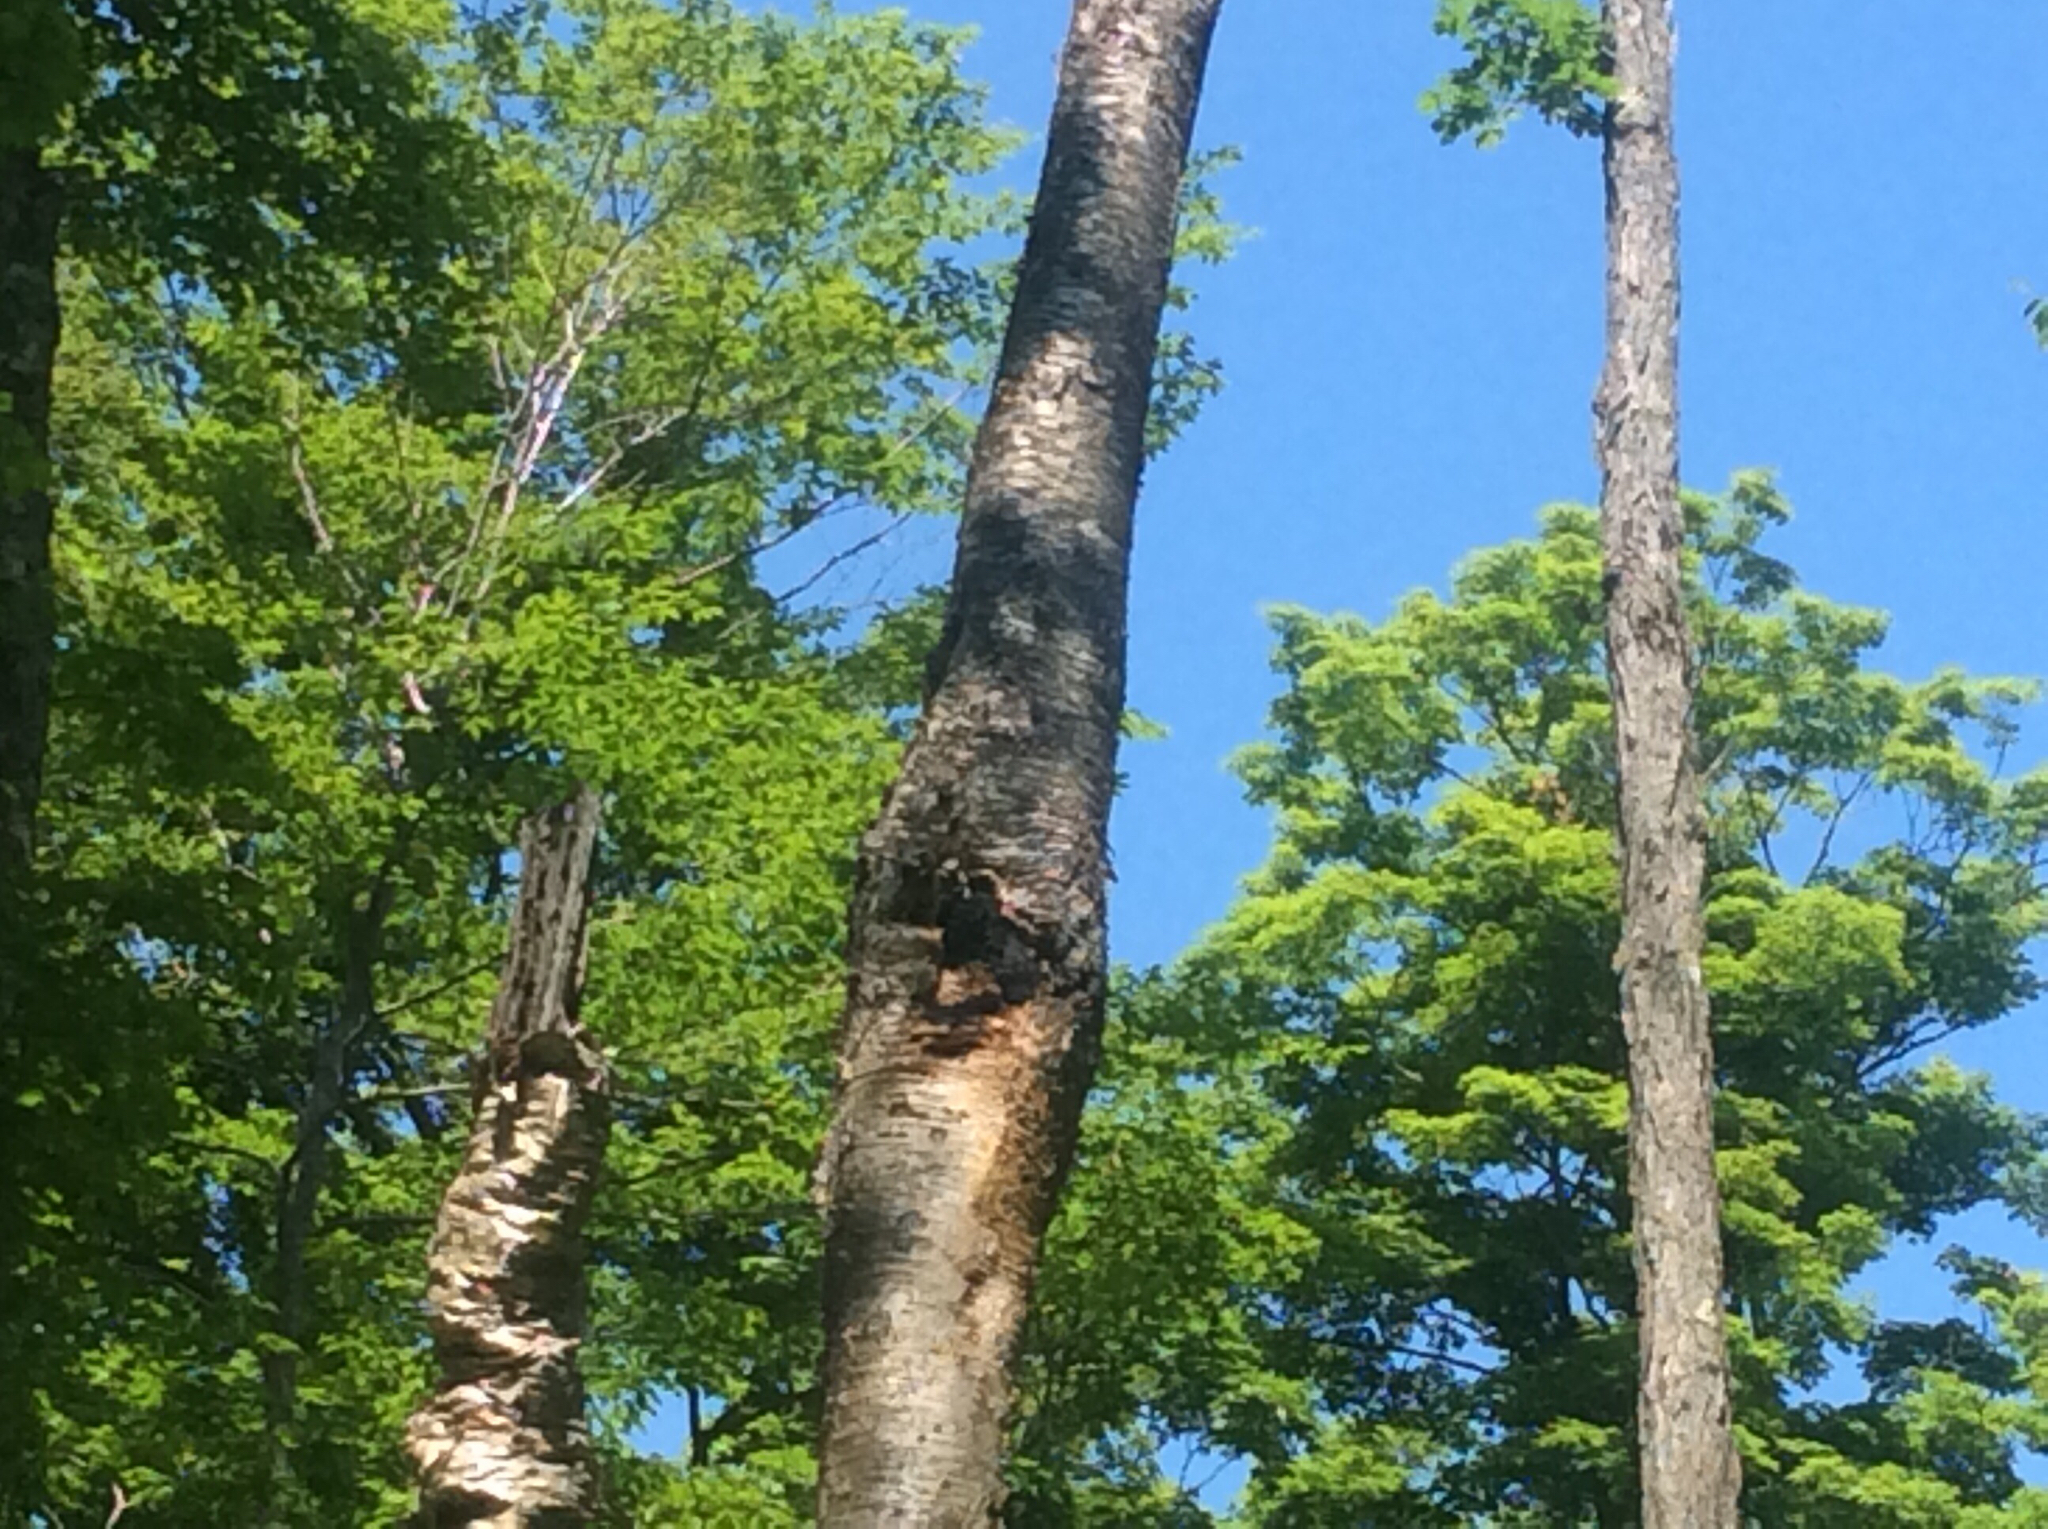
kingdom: Fungi
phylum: Basidiomycota
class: Agaricomycetes
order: Hymenochaetales
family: Hymenochaetaceae
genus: Inonotus
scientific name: Inonotus obliquus
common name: Chaga
